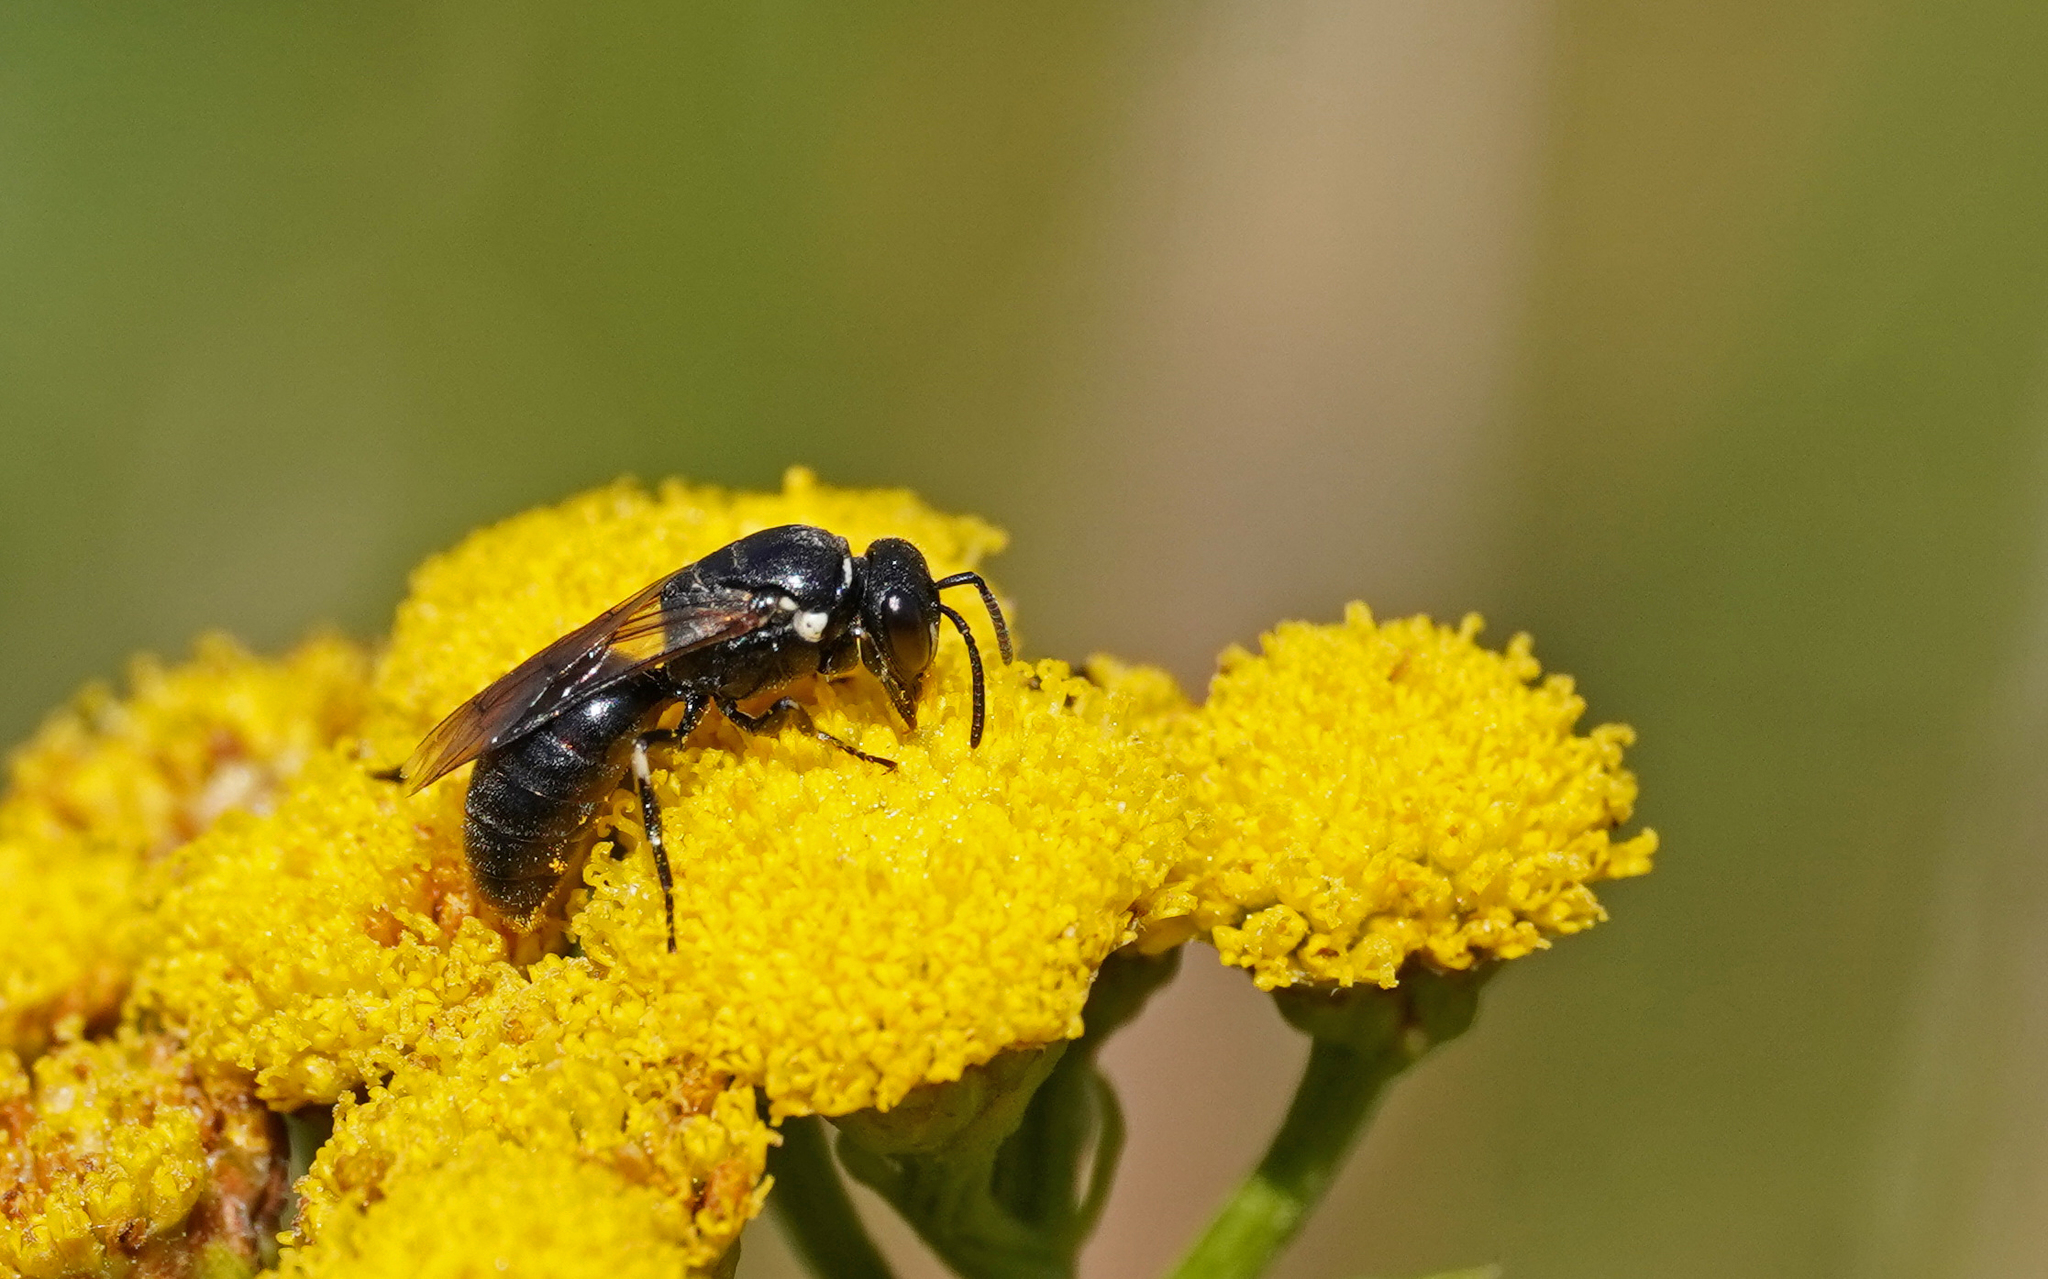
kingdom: Animalia
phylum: Arthropoda
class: Insecta
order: Hymenoptera
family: Colletidae
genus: Hylaeus
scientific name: Hylaeus nigritus
